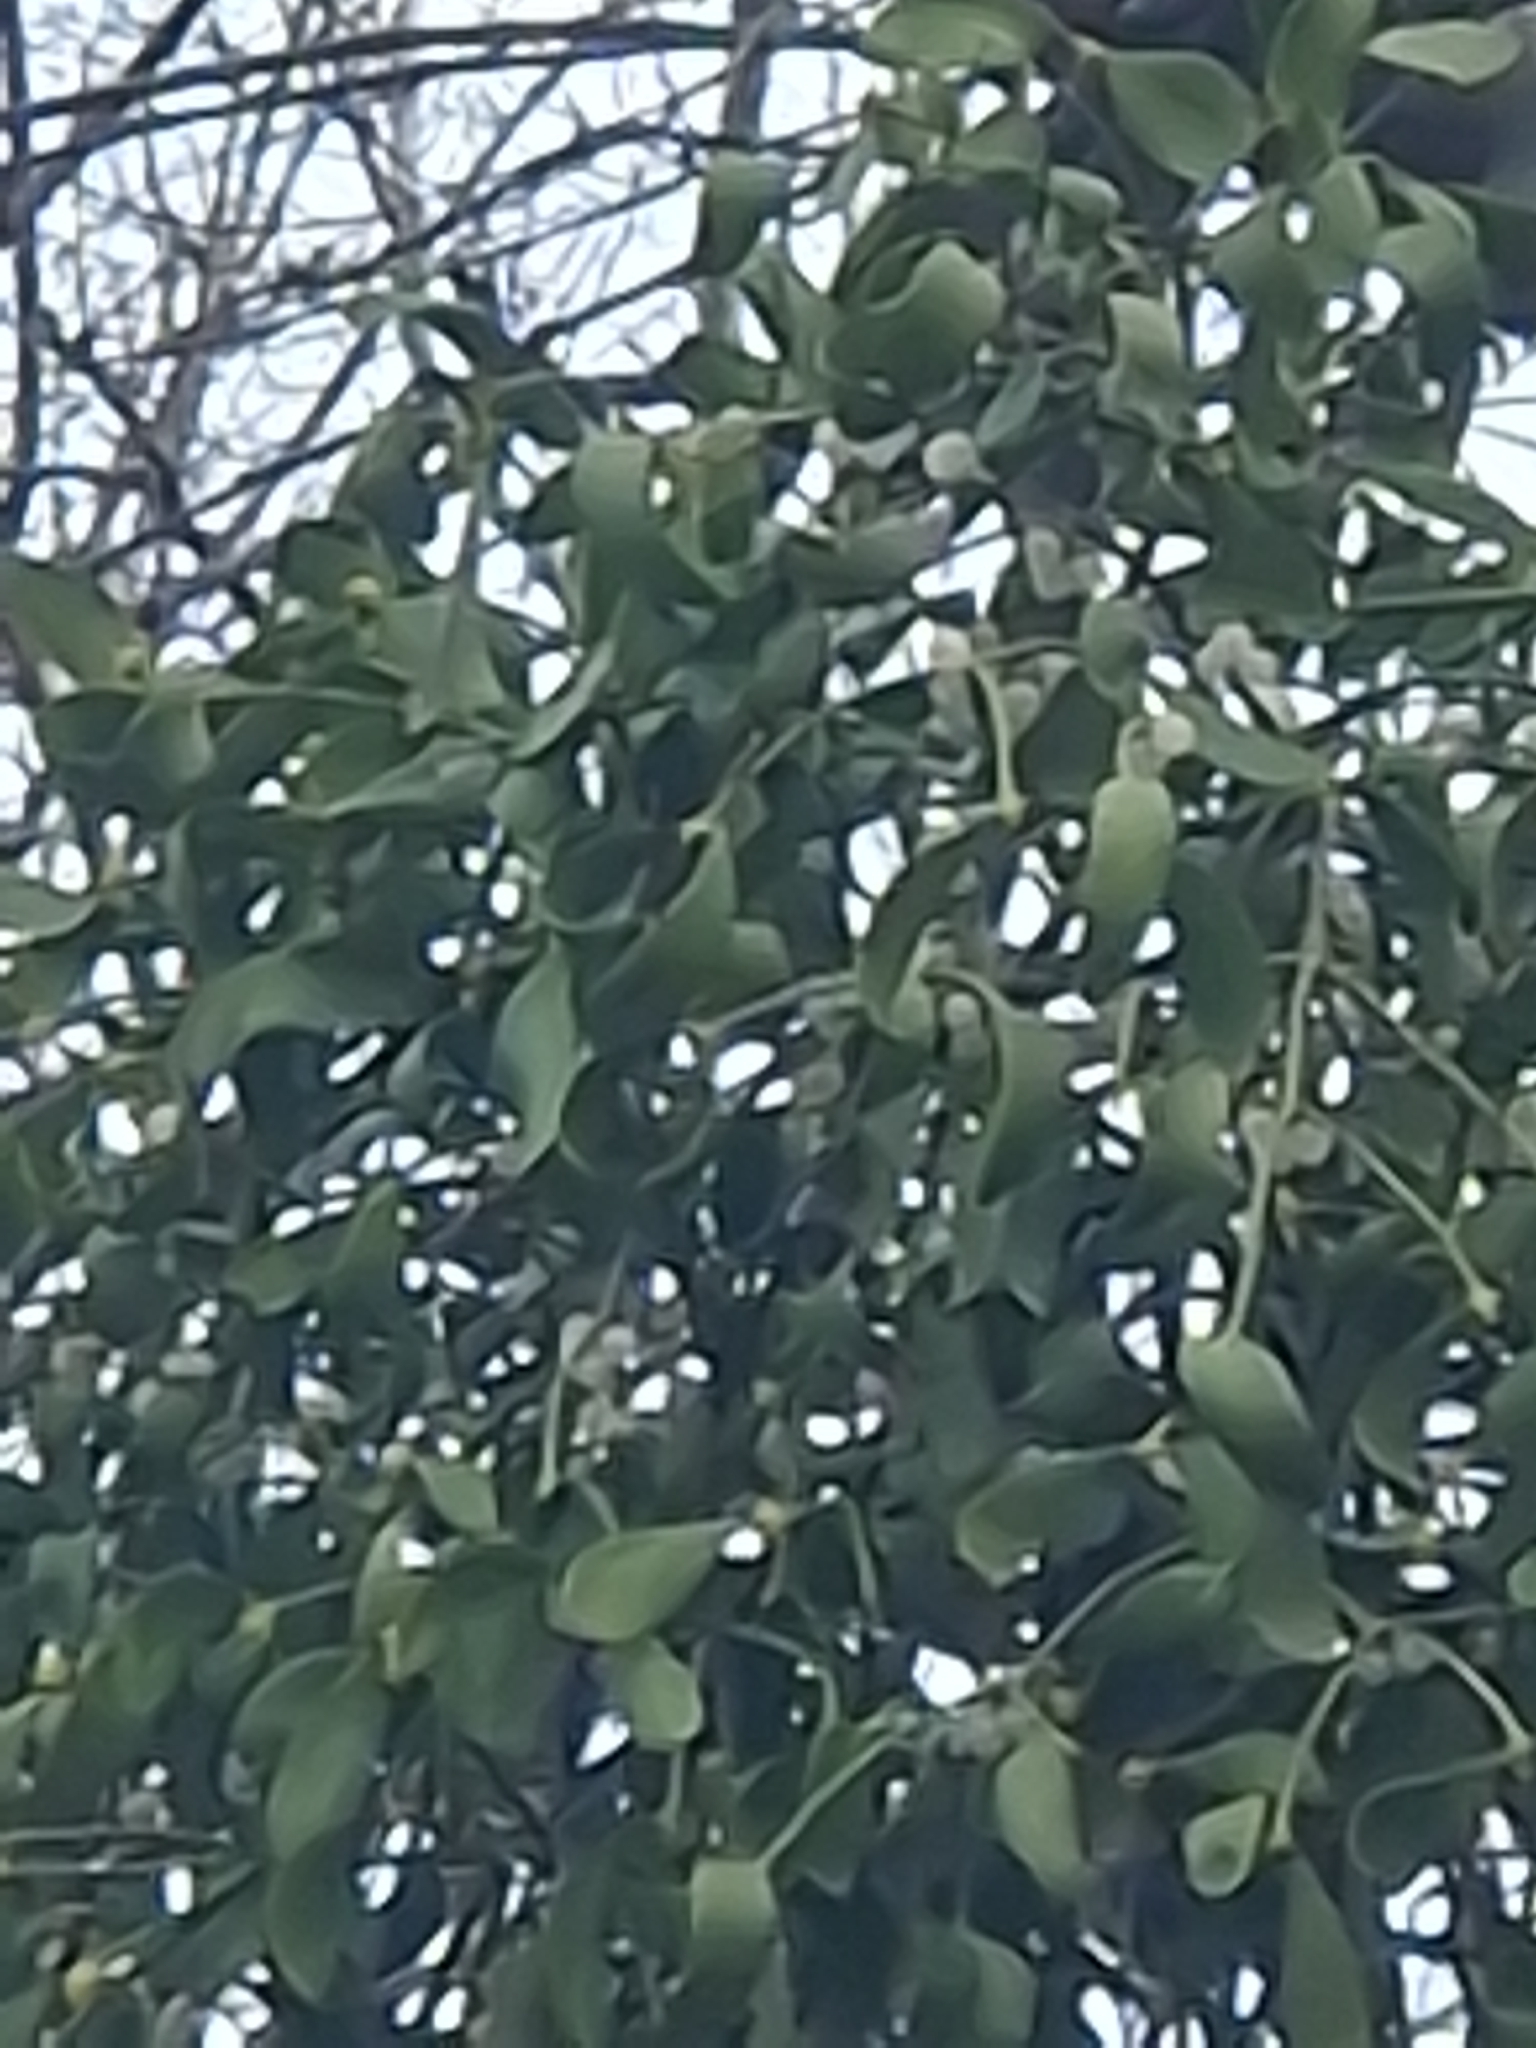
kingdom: Plantae
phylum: Tracheophyta
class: Magnoliopsida
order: Santalales
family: Viscaceae
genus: Viscum
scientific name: Viscum album
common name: Mistletoe
